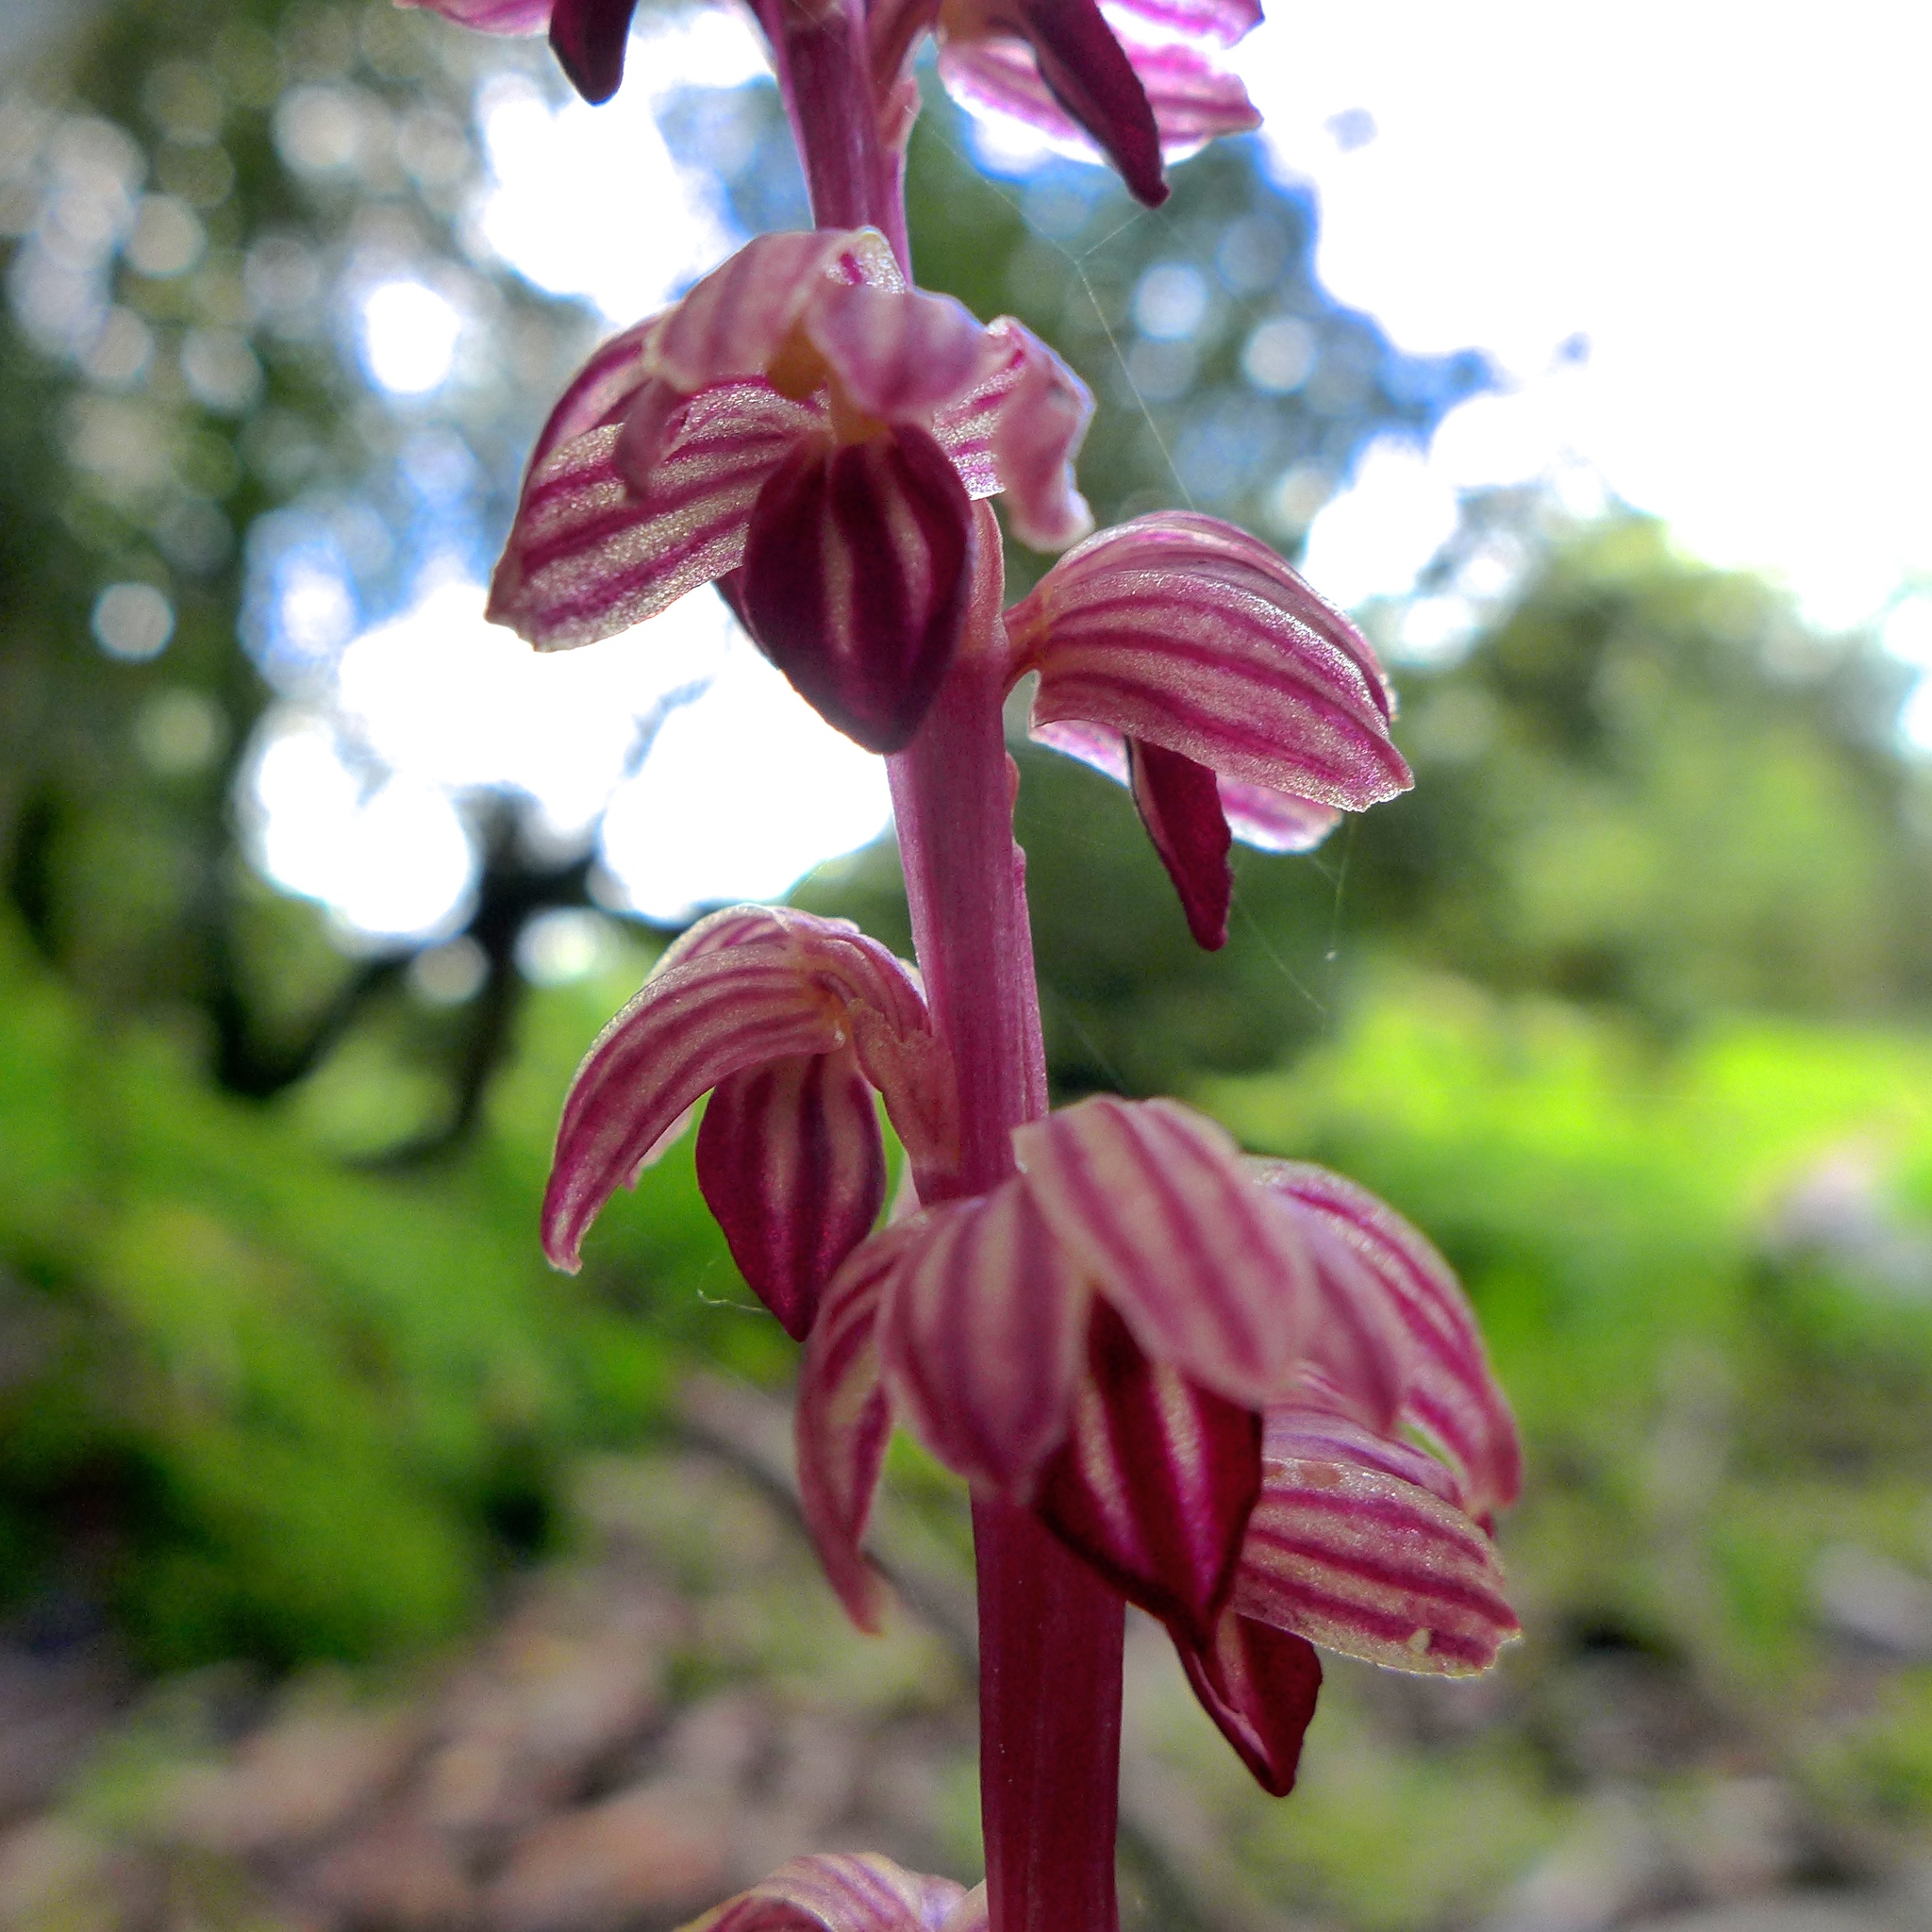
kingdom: Plantae
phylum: Tracheophyta
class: Liliopsida
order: Asparagales
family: Orchidaceae
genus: Corallorhiza
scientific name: Corallorhiza striata
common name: Hooded coralroot
